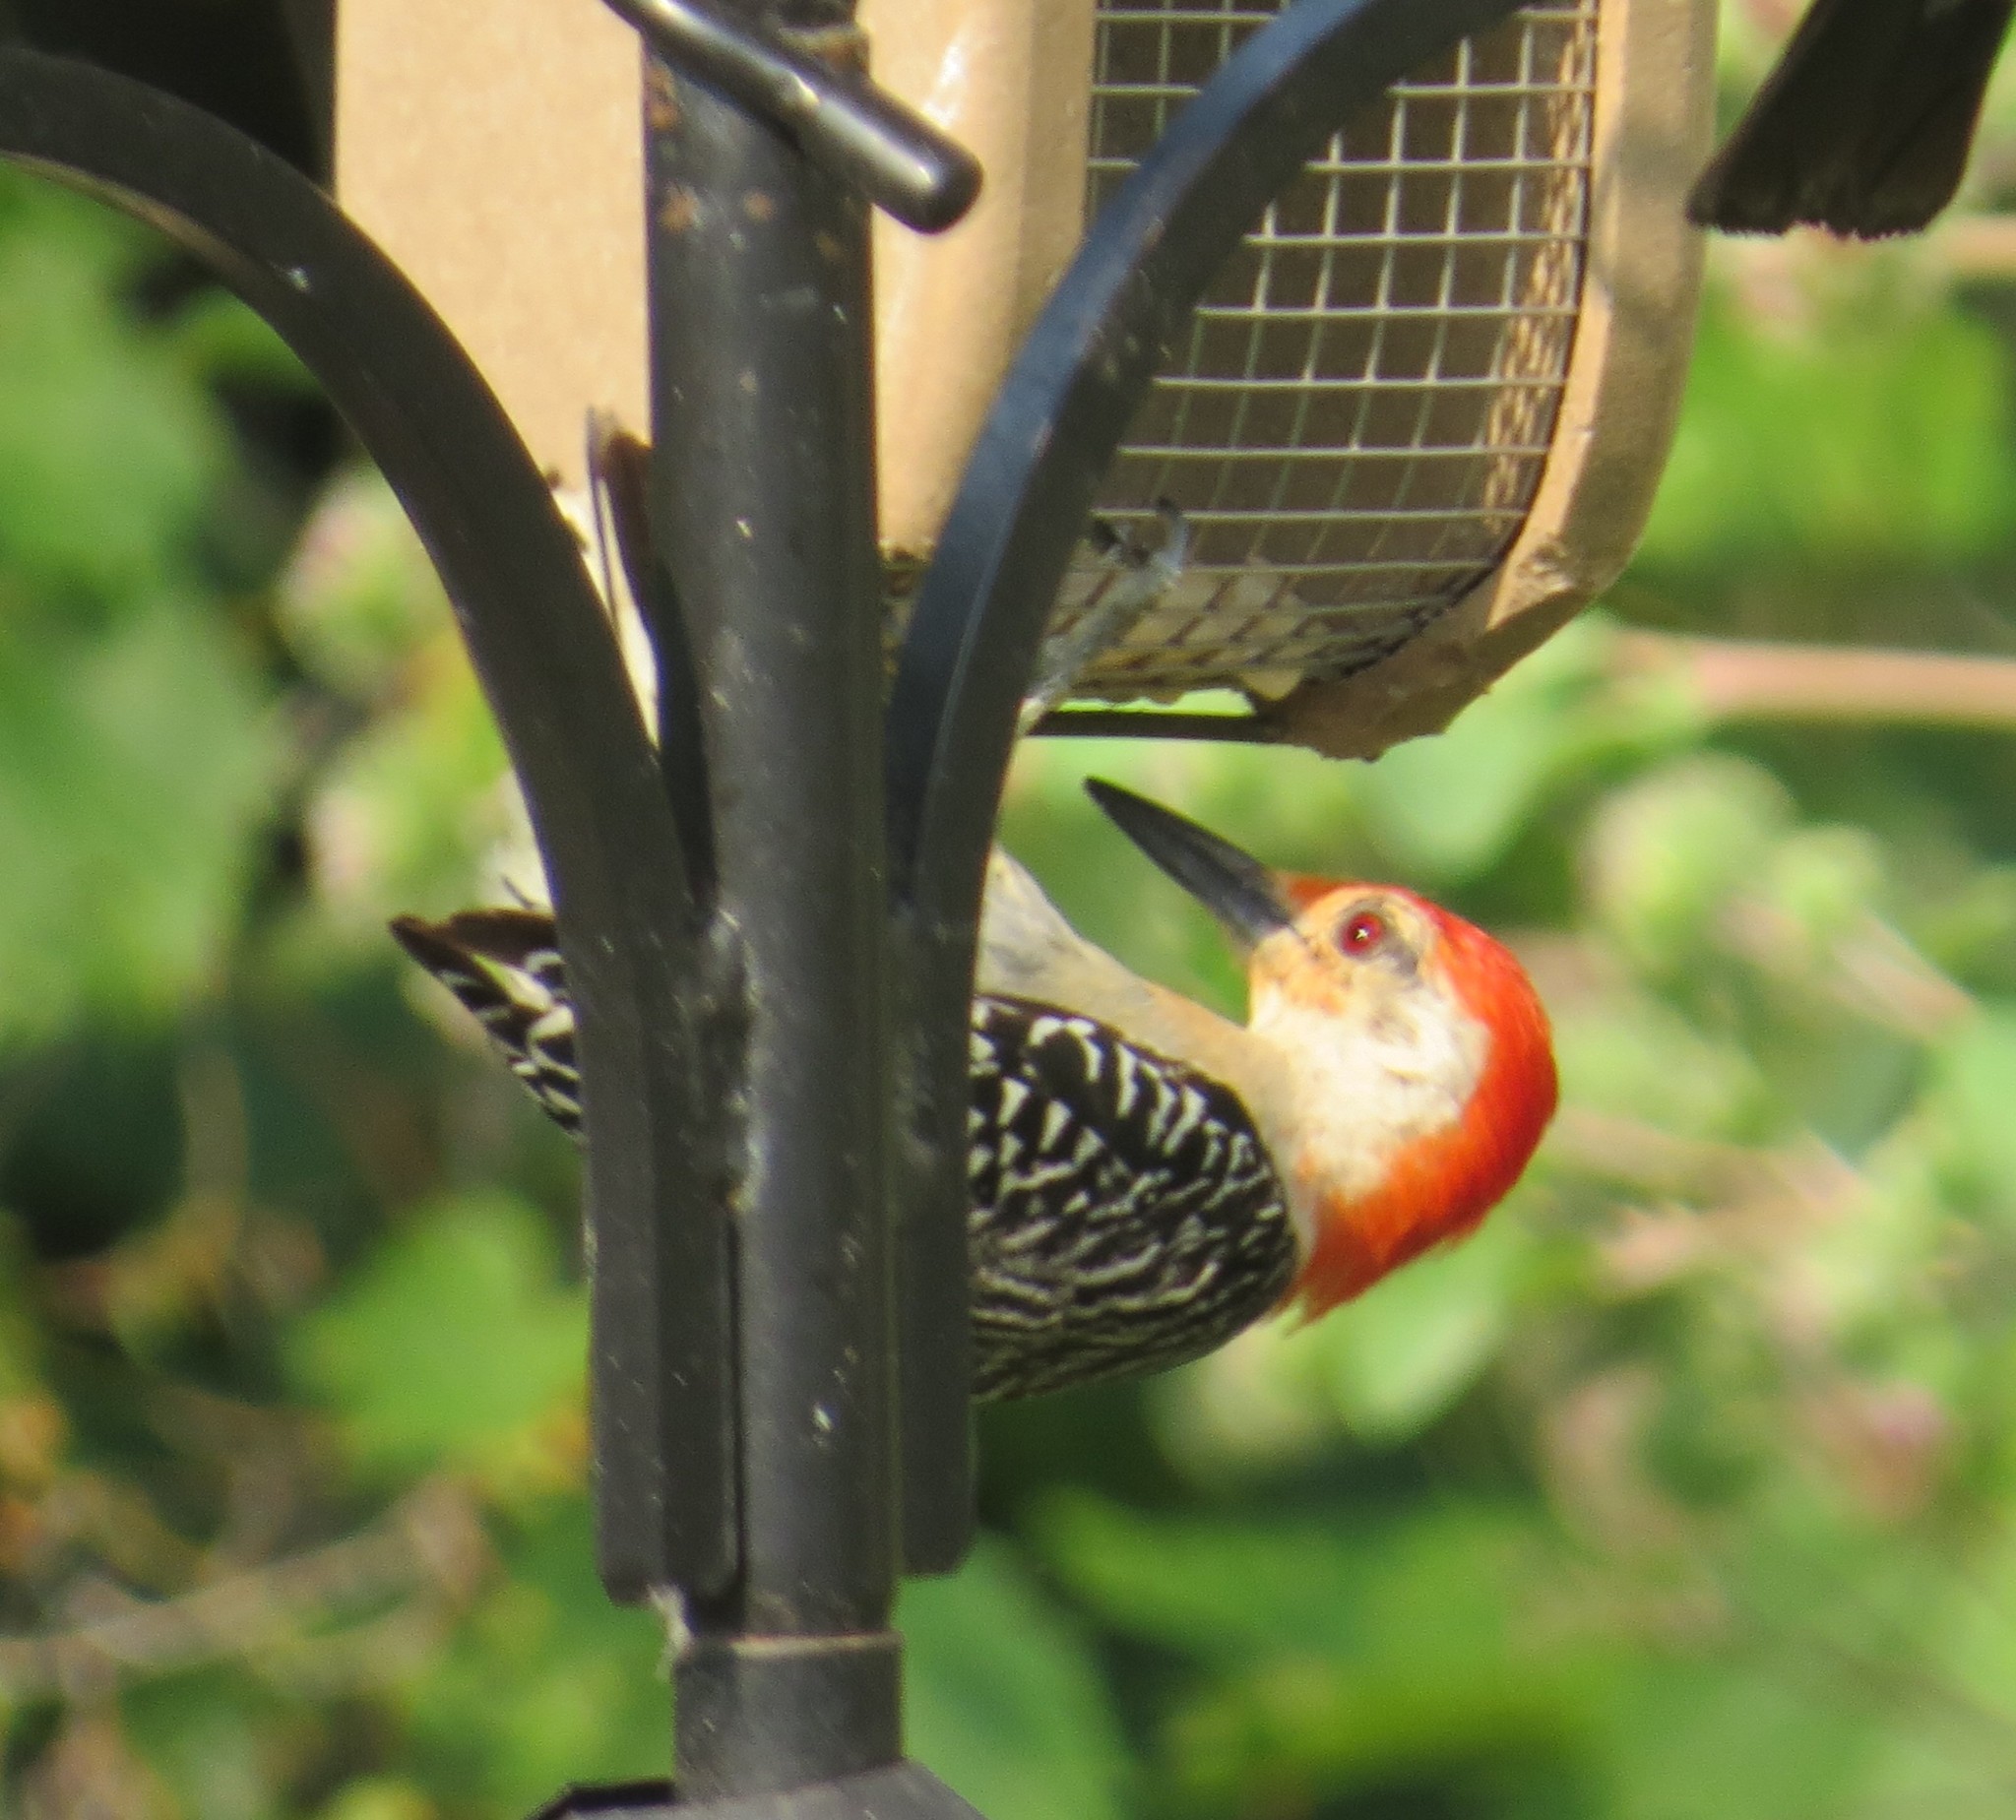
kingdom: Animalia
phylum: Chordata
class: Aves
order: Piciformes
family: Picidae
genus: Melanerpes
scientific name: Melanerpes carolinus
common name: Red-bellied woodpecker
